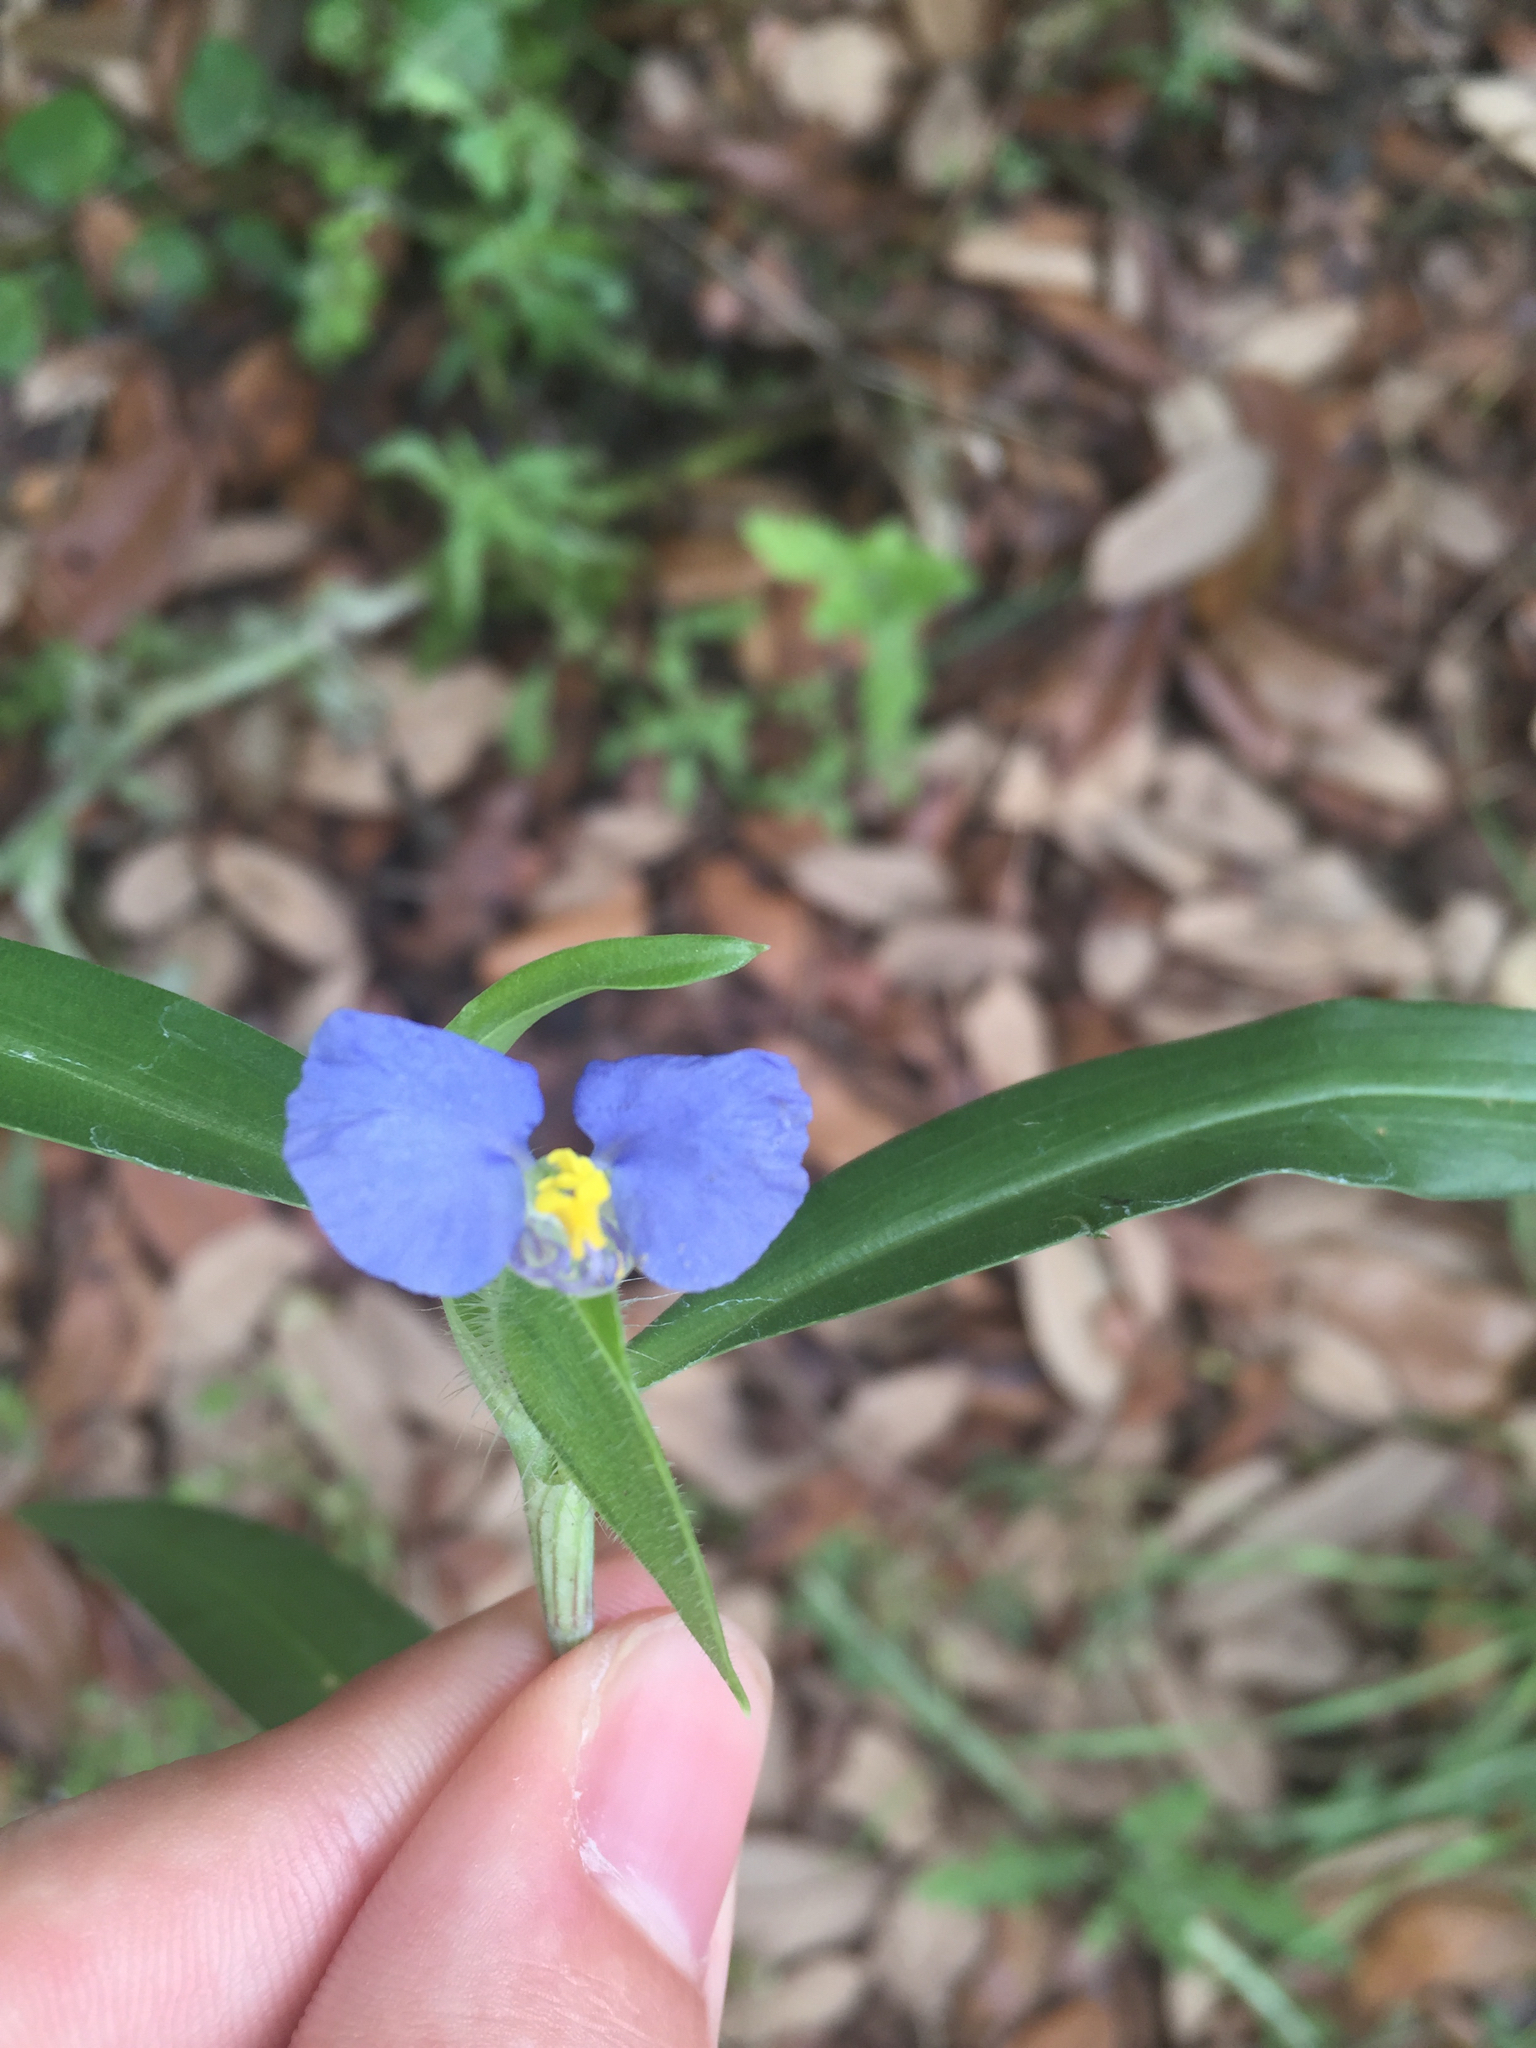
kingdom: Plantae
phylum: Tracheophyta
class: Liliopsida
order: Commelinales
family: Commelinaceae
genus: Commelina
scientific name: Commelina erecta
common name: Blousel blommetjie
